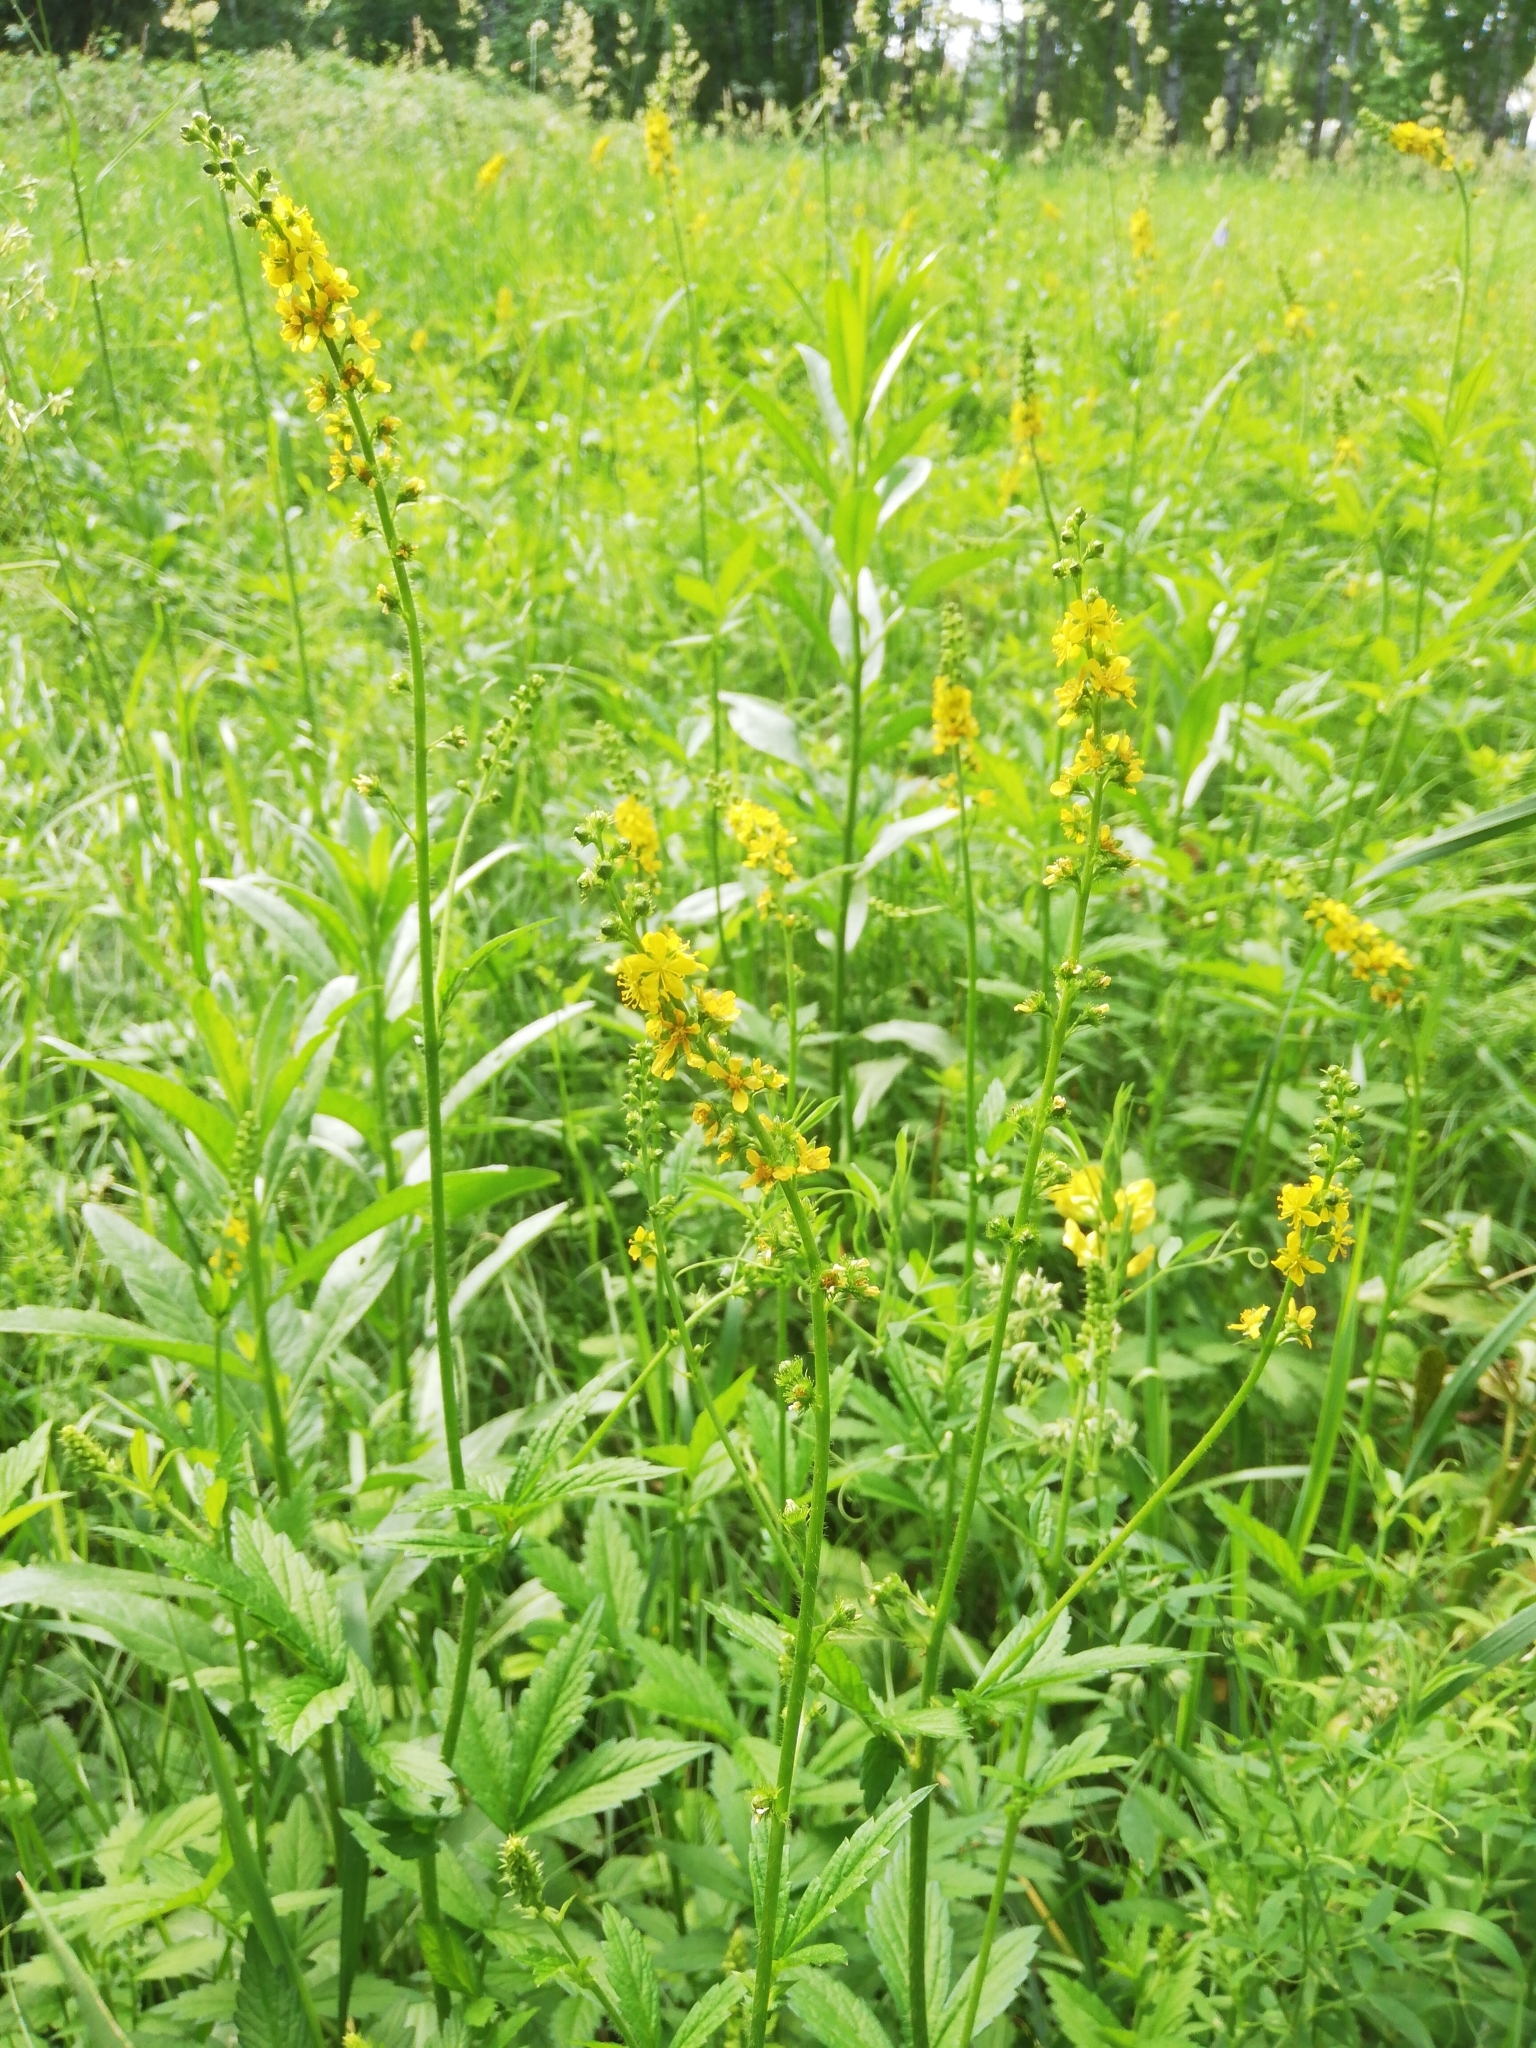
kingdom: Plantae
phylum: Tracheophyta
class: Magnoliopsida
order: Rosales
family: Rosaceae
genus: Agrimonia
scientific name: Agrimonia pilosa
